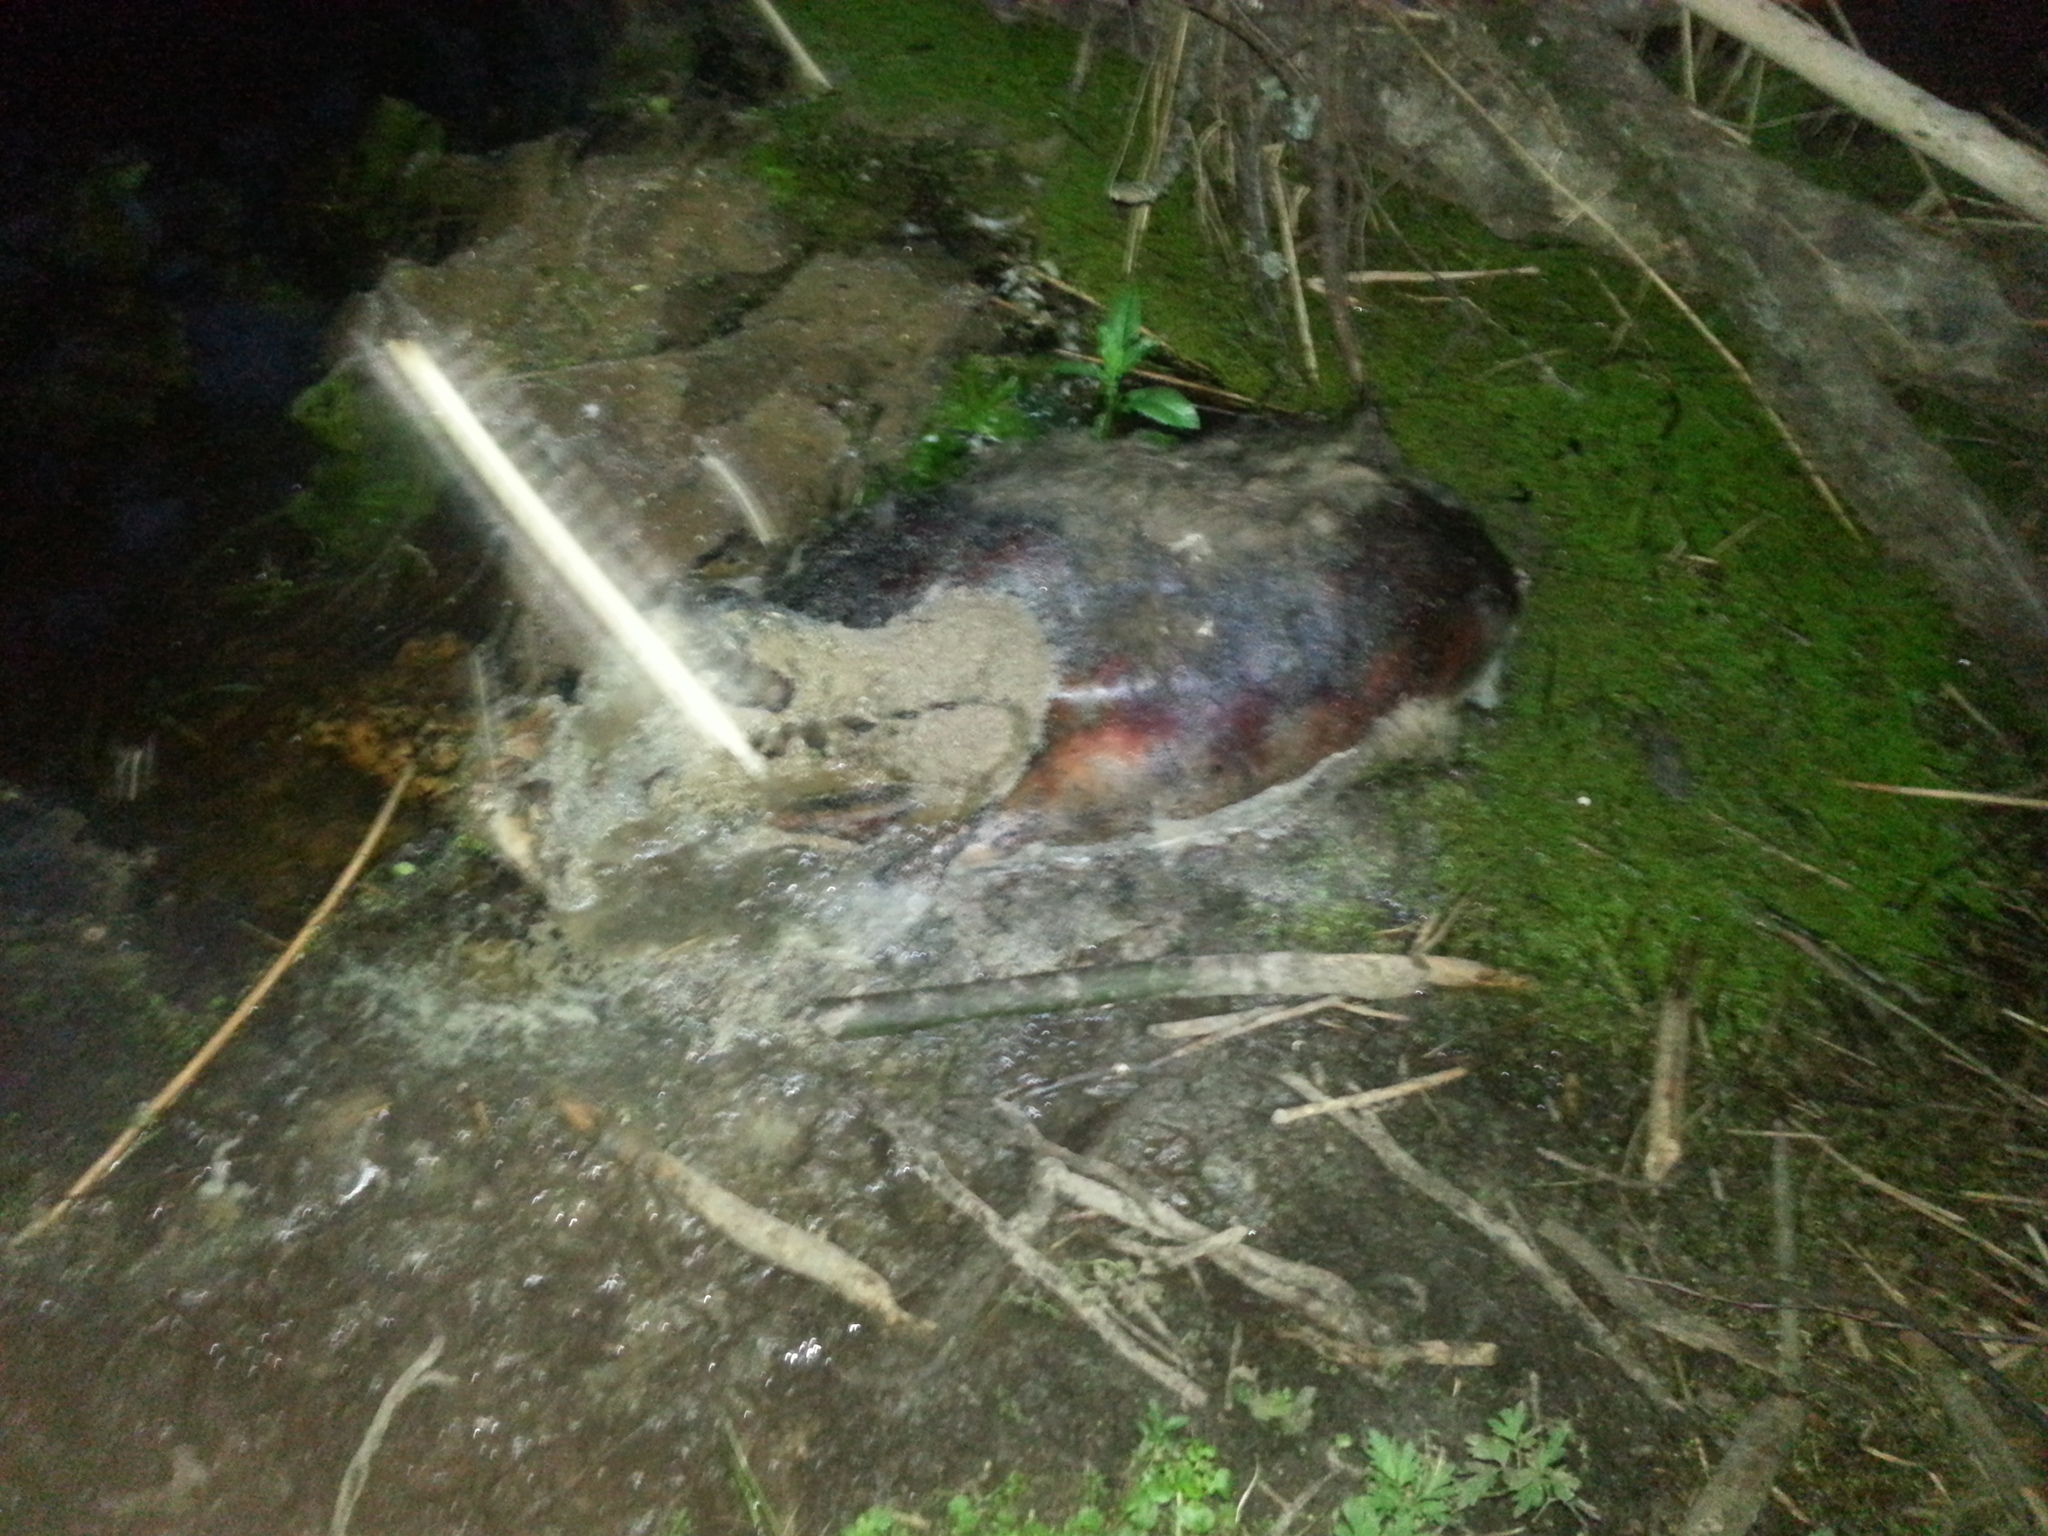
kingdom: Animalia
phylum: Chordata
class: Mammalia
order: Artiodactyla
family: Suidae
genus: Sus
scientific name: Sus scrofa
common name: Wild boar
